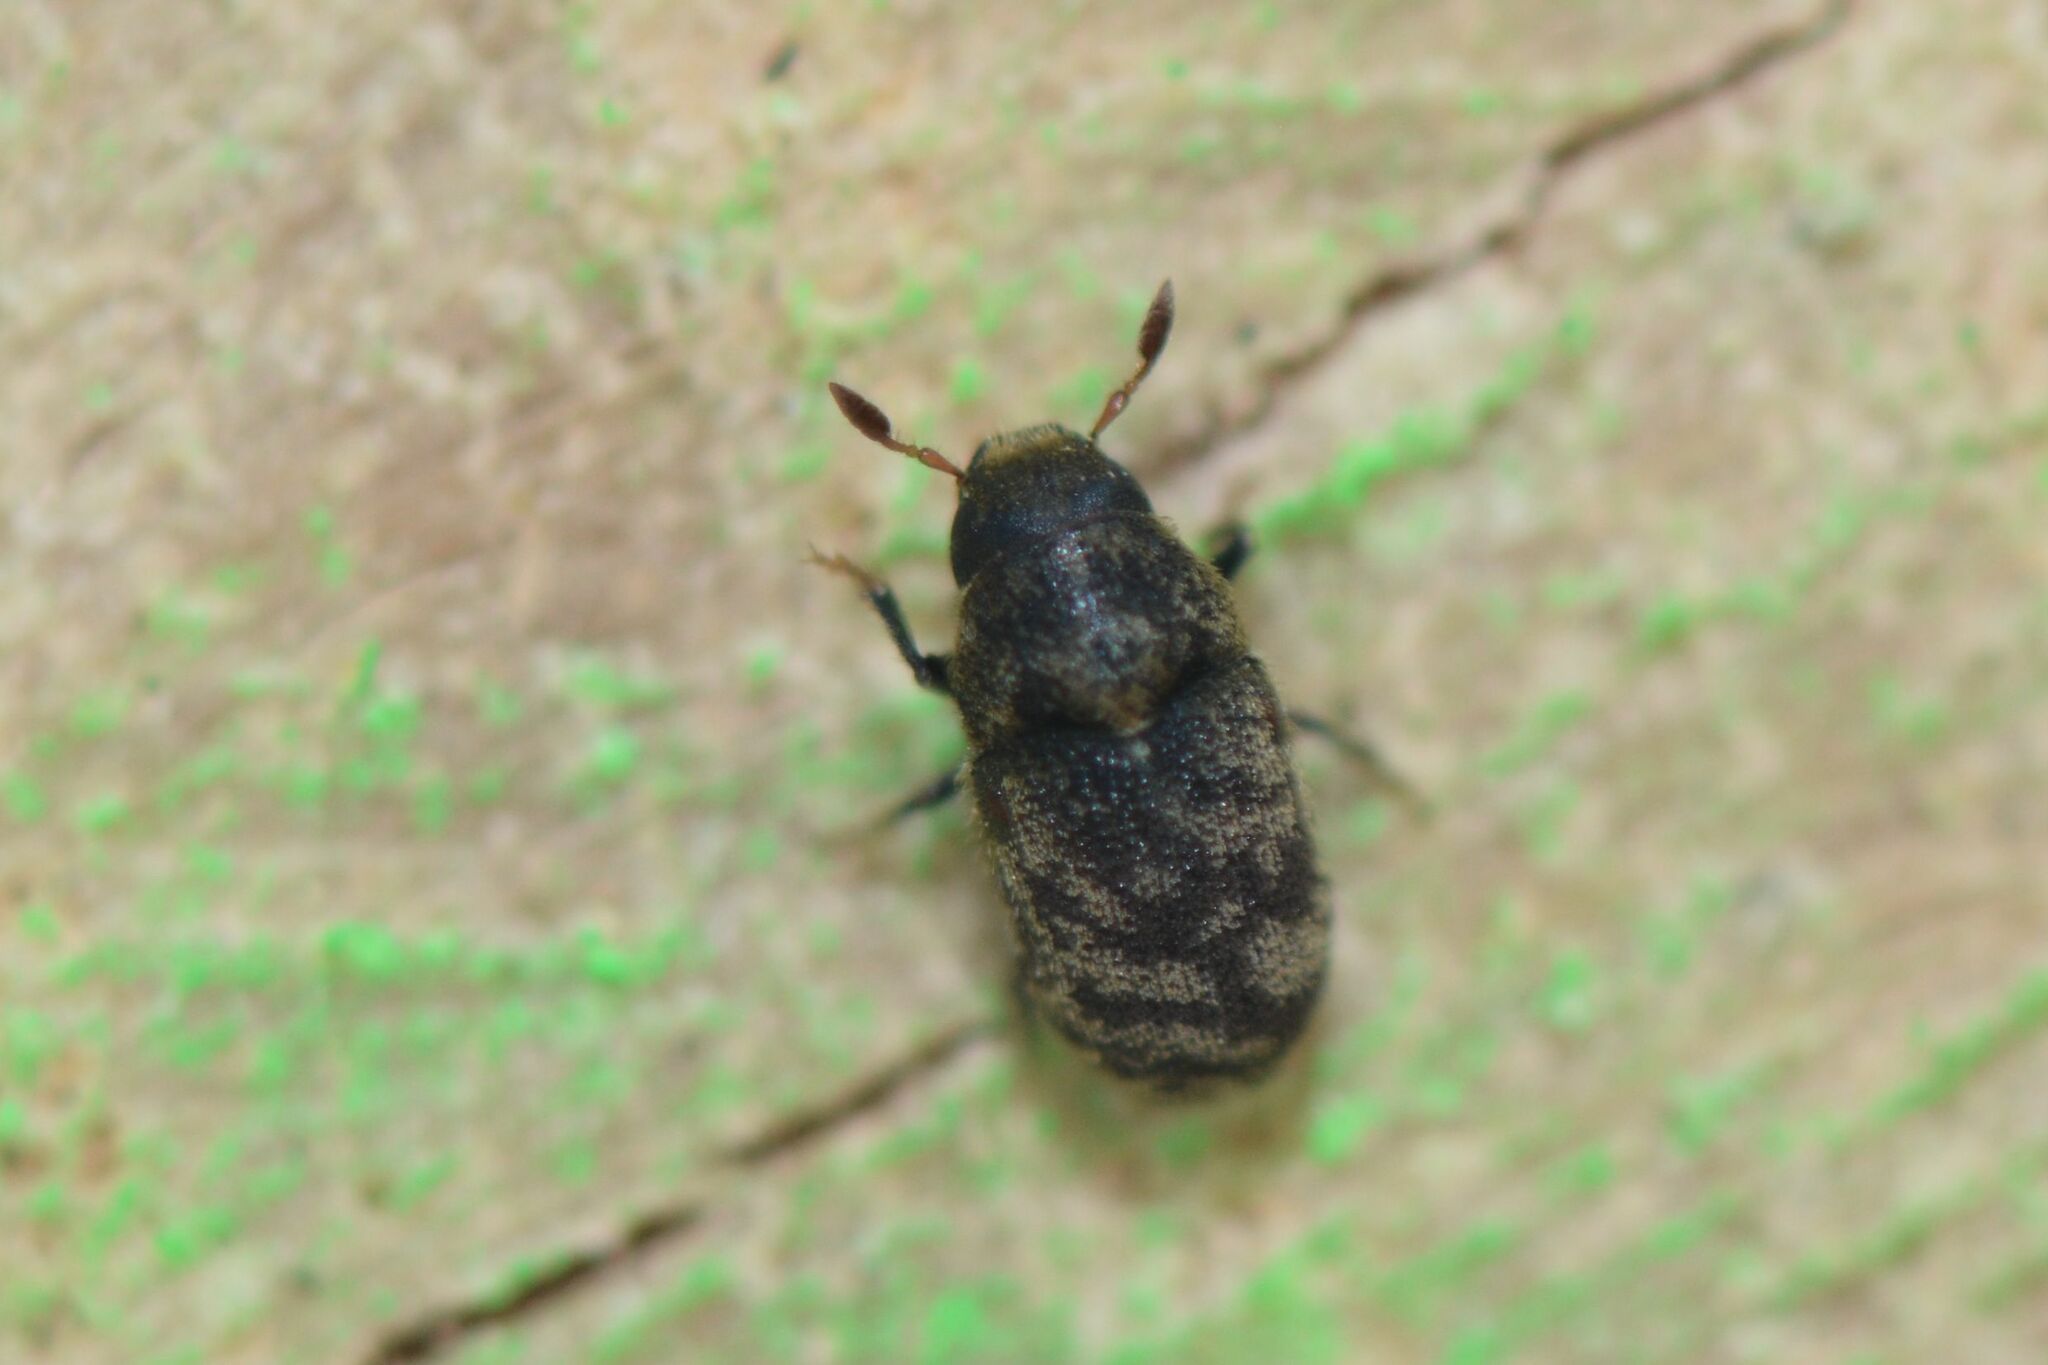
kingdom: Animalia
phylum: Arthropoda
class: Insecta
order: Coleoptera
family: Curculionidae
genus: Hylesinus
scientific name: Hylesinus varius
